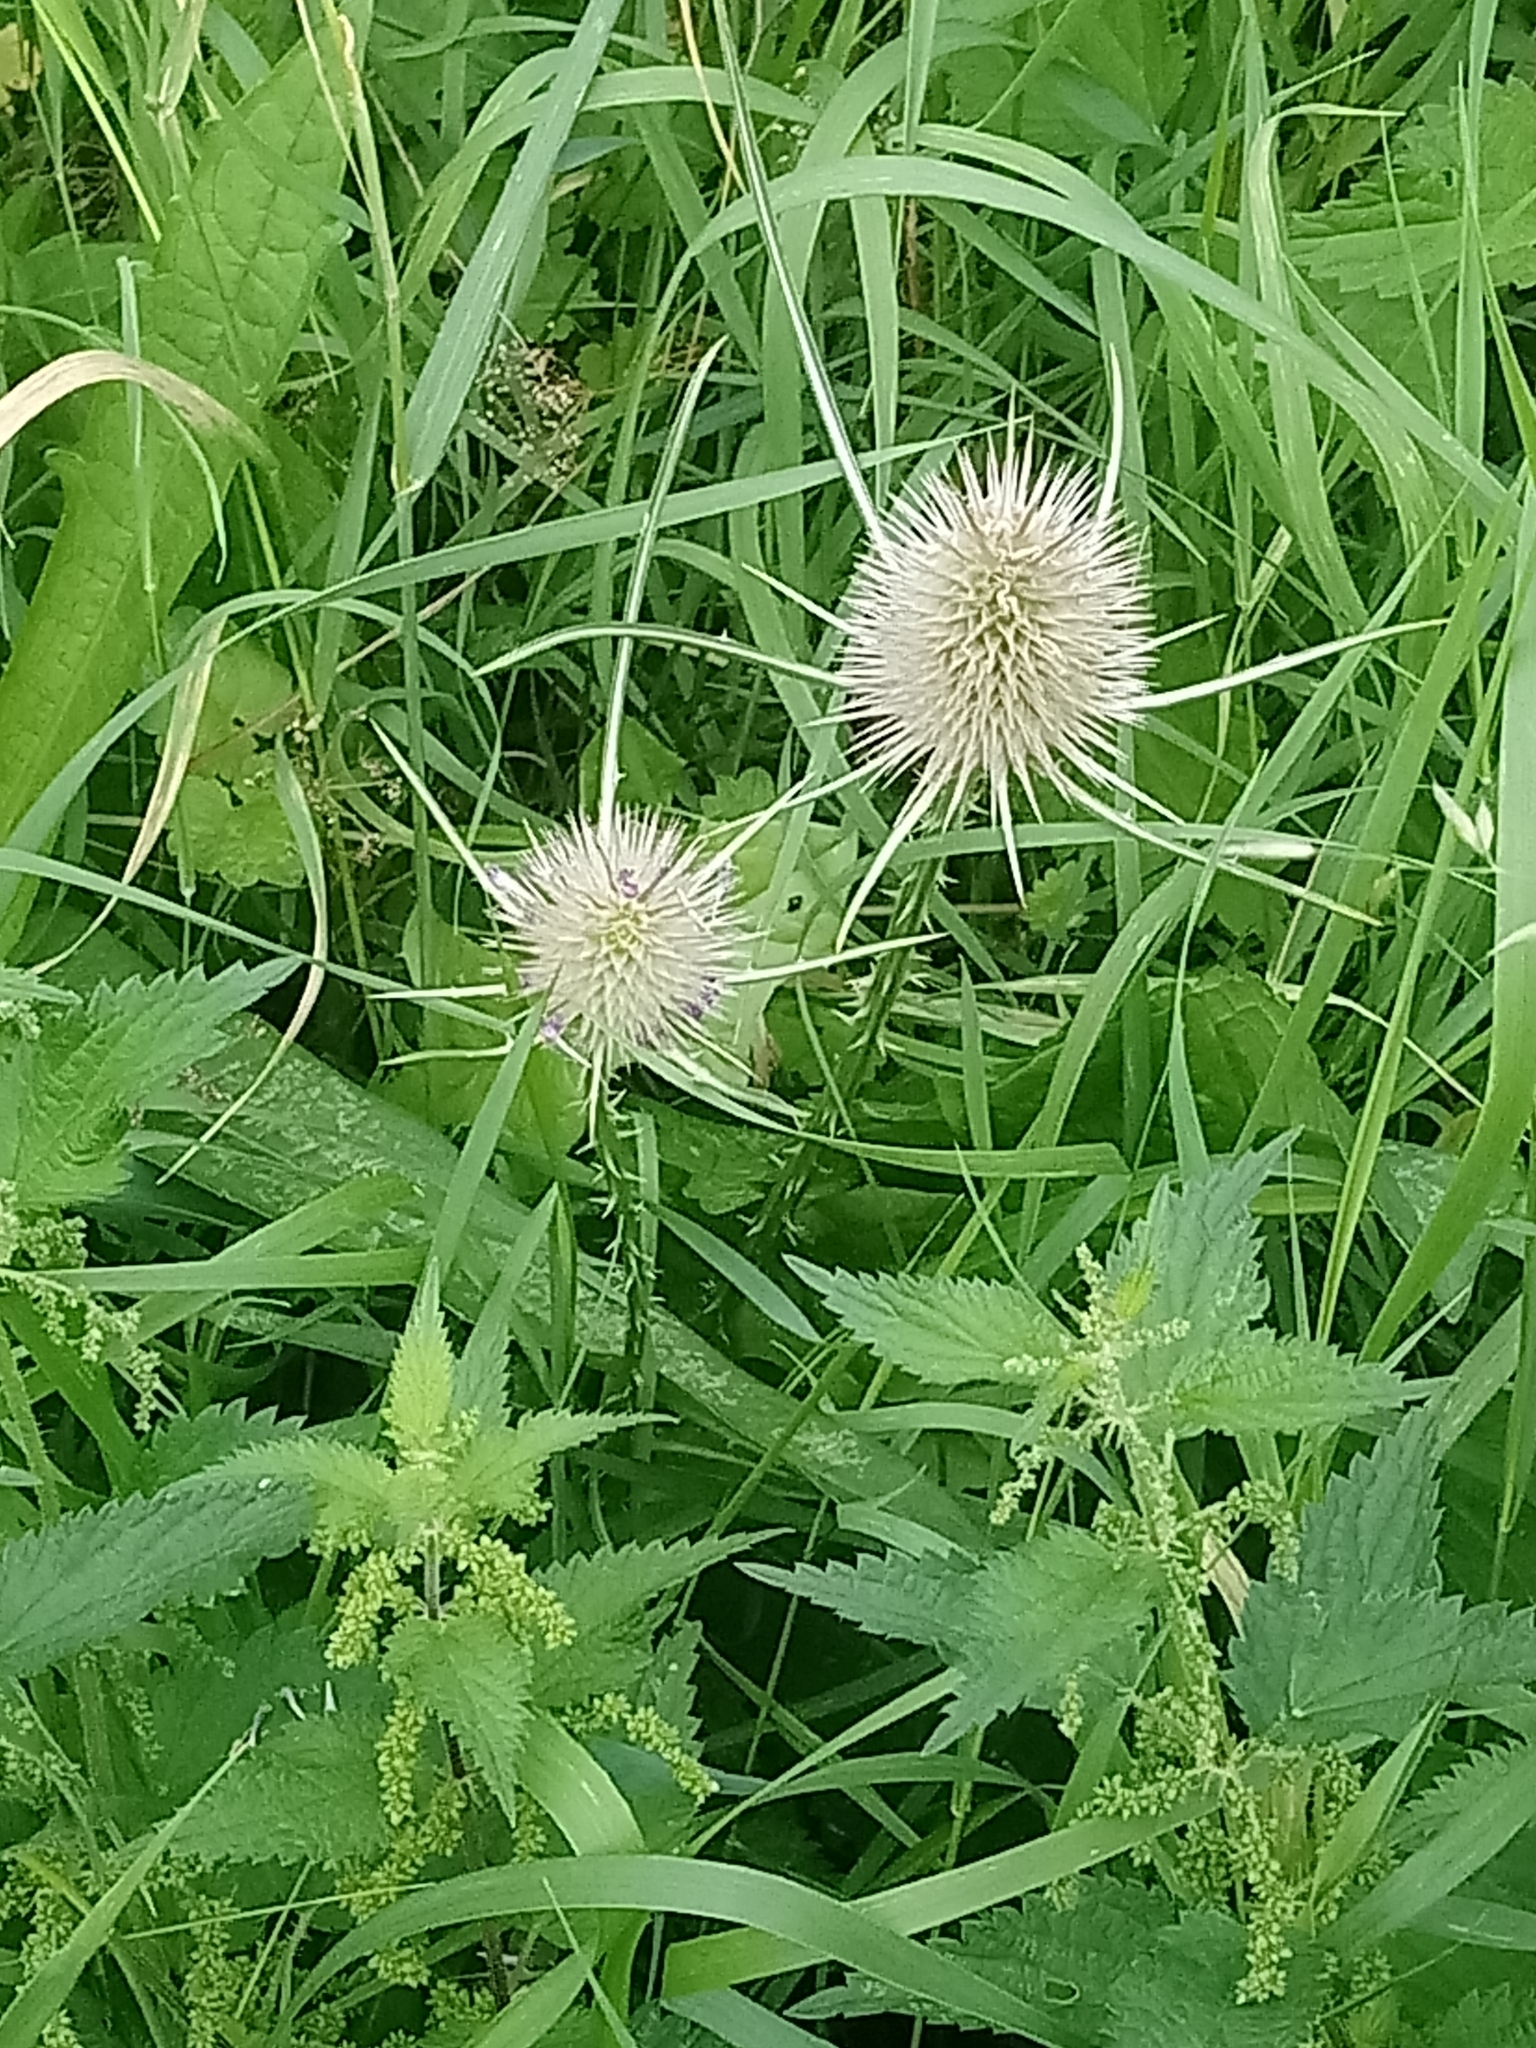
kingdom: Plantae
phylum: Tracheophyta
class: Magnoliopsida
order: Dipsacales
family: Caprifoliaceae
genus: Dipsacus
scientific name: Dipsacus fullonum
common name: Teasel
